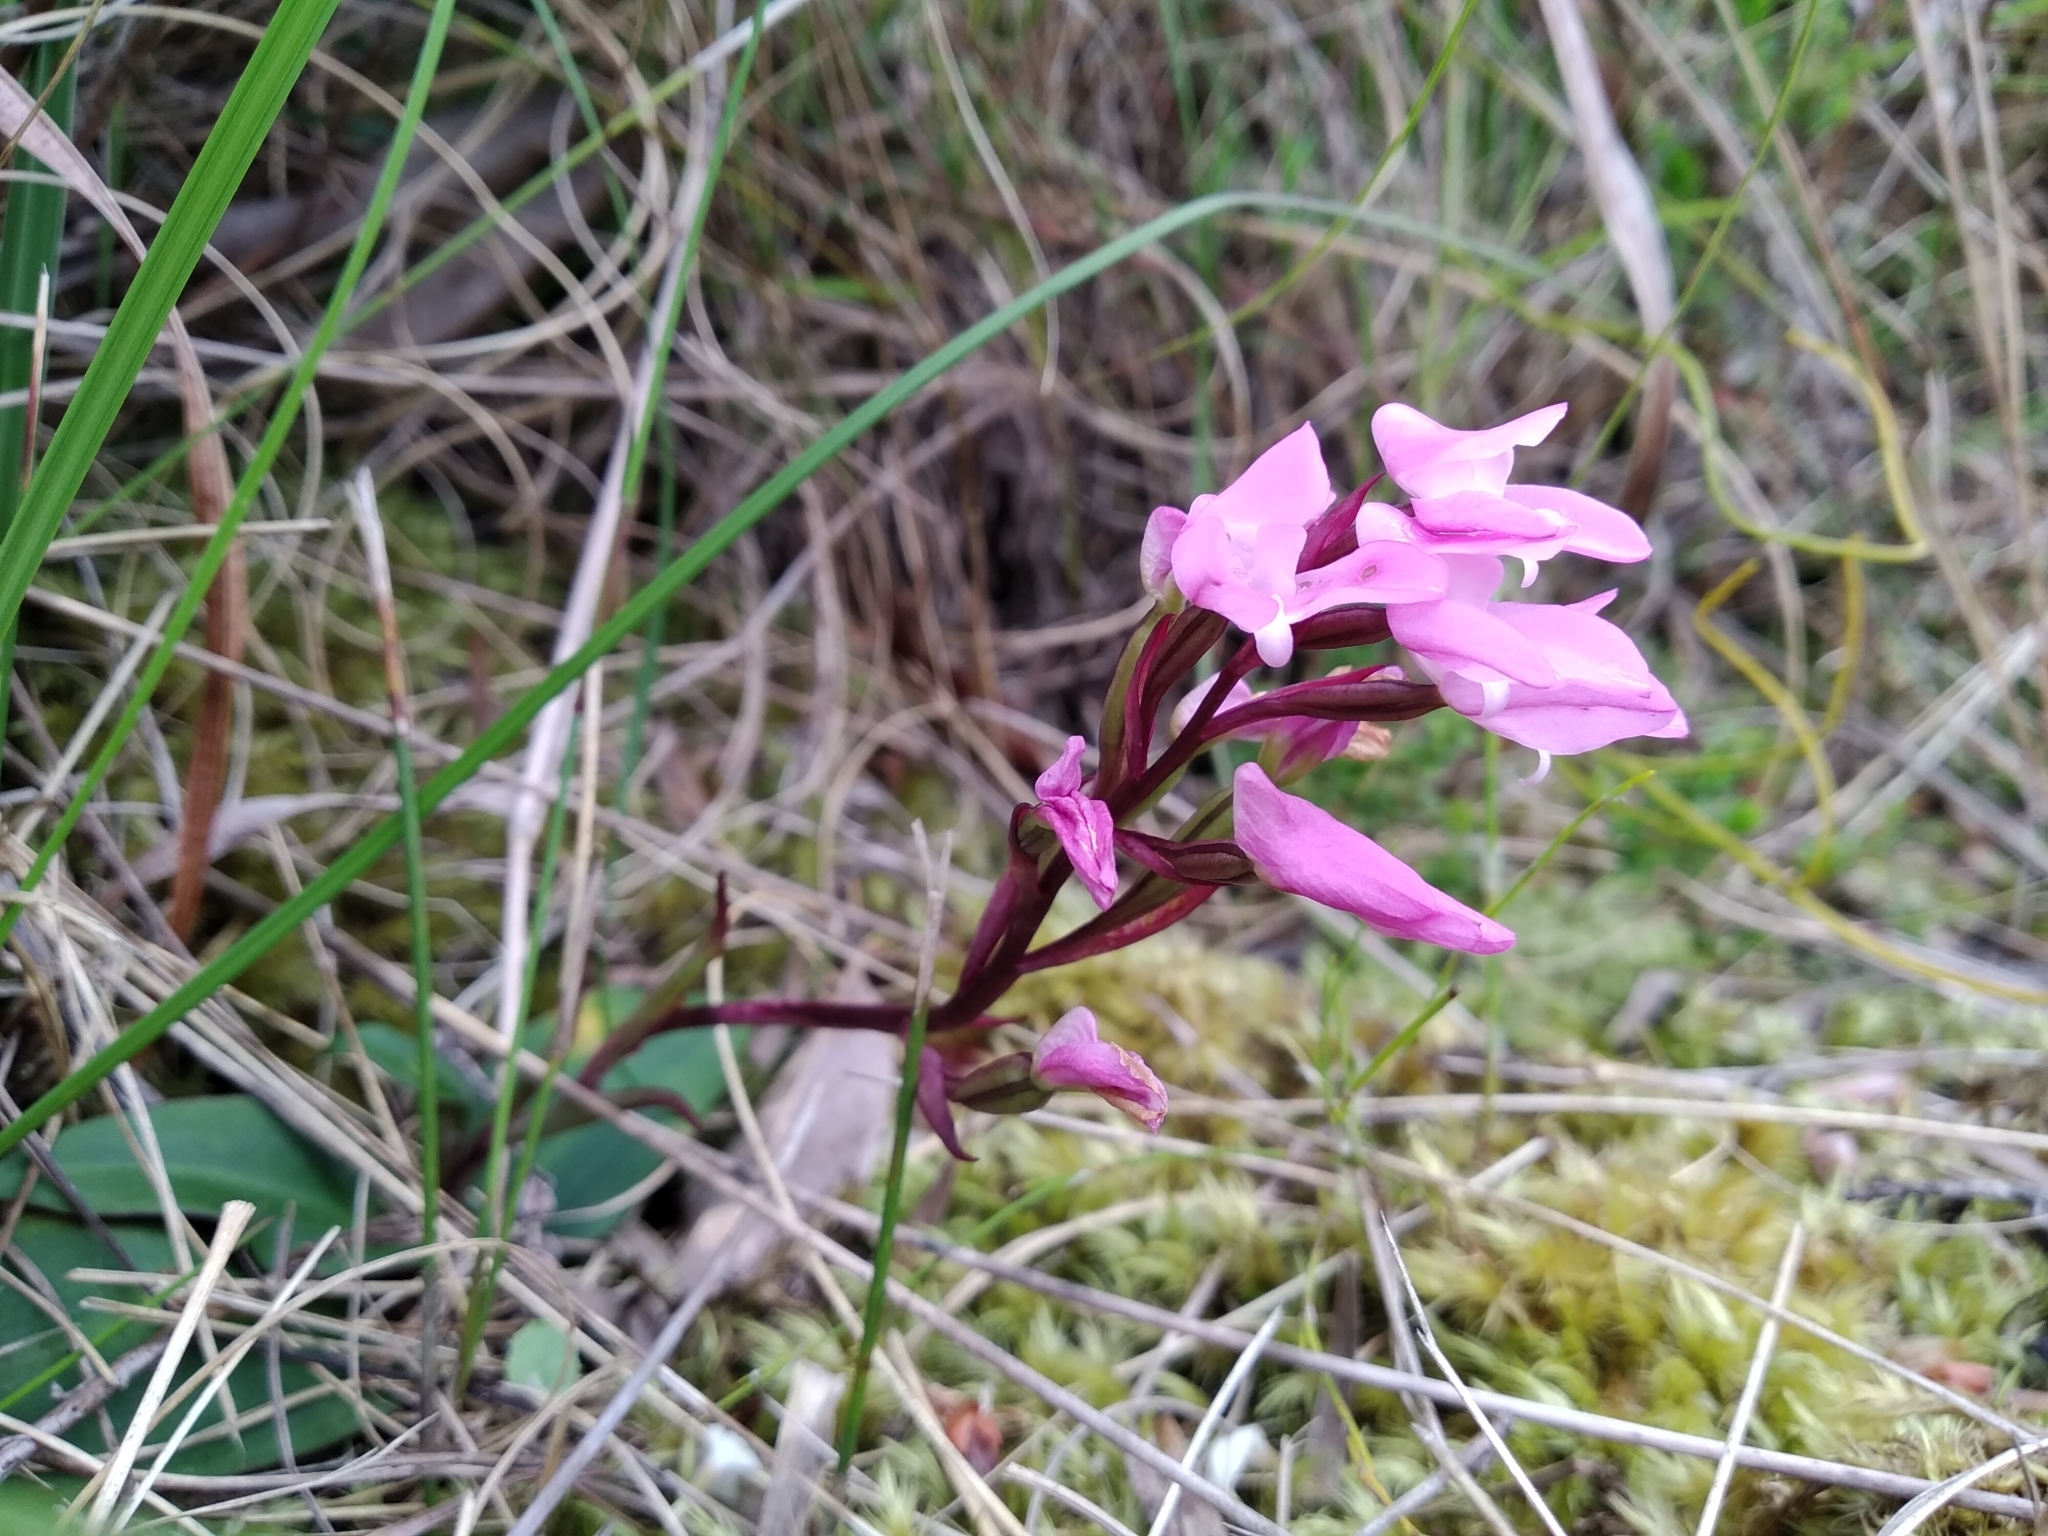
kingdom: Plantae
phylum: Tracheophyta
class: Liliopsida
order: Asparagales
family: Orchidaceae
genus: Disa
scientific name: Disa rosea
